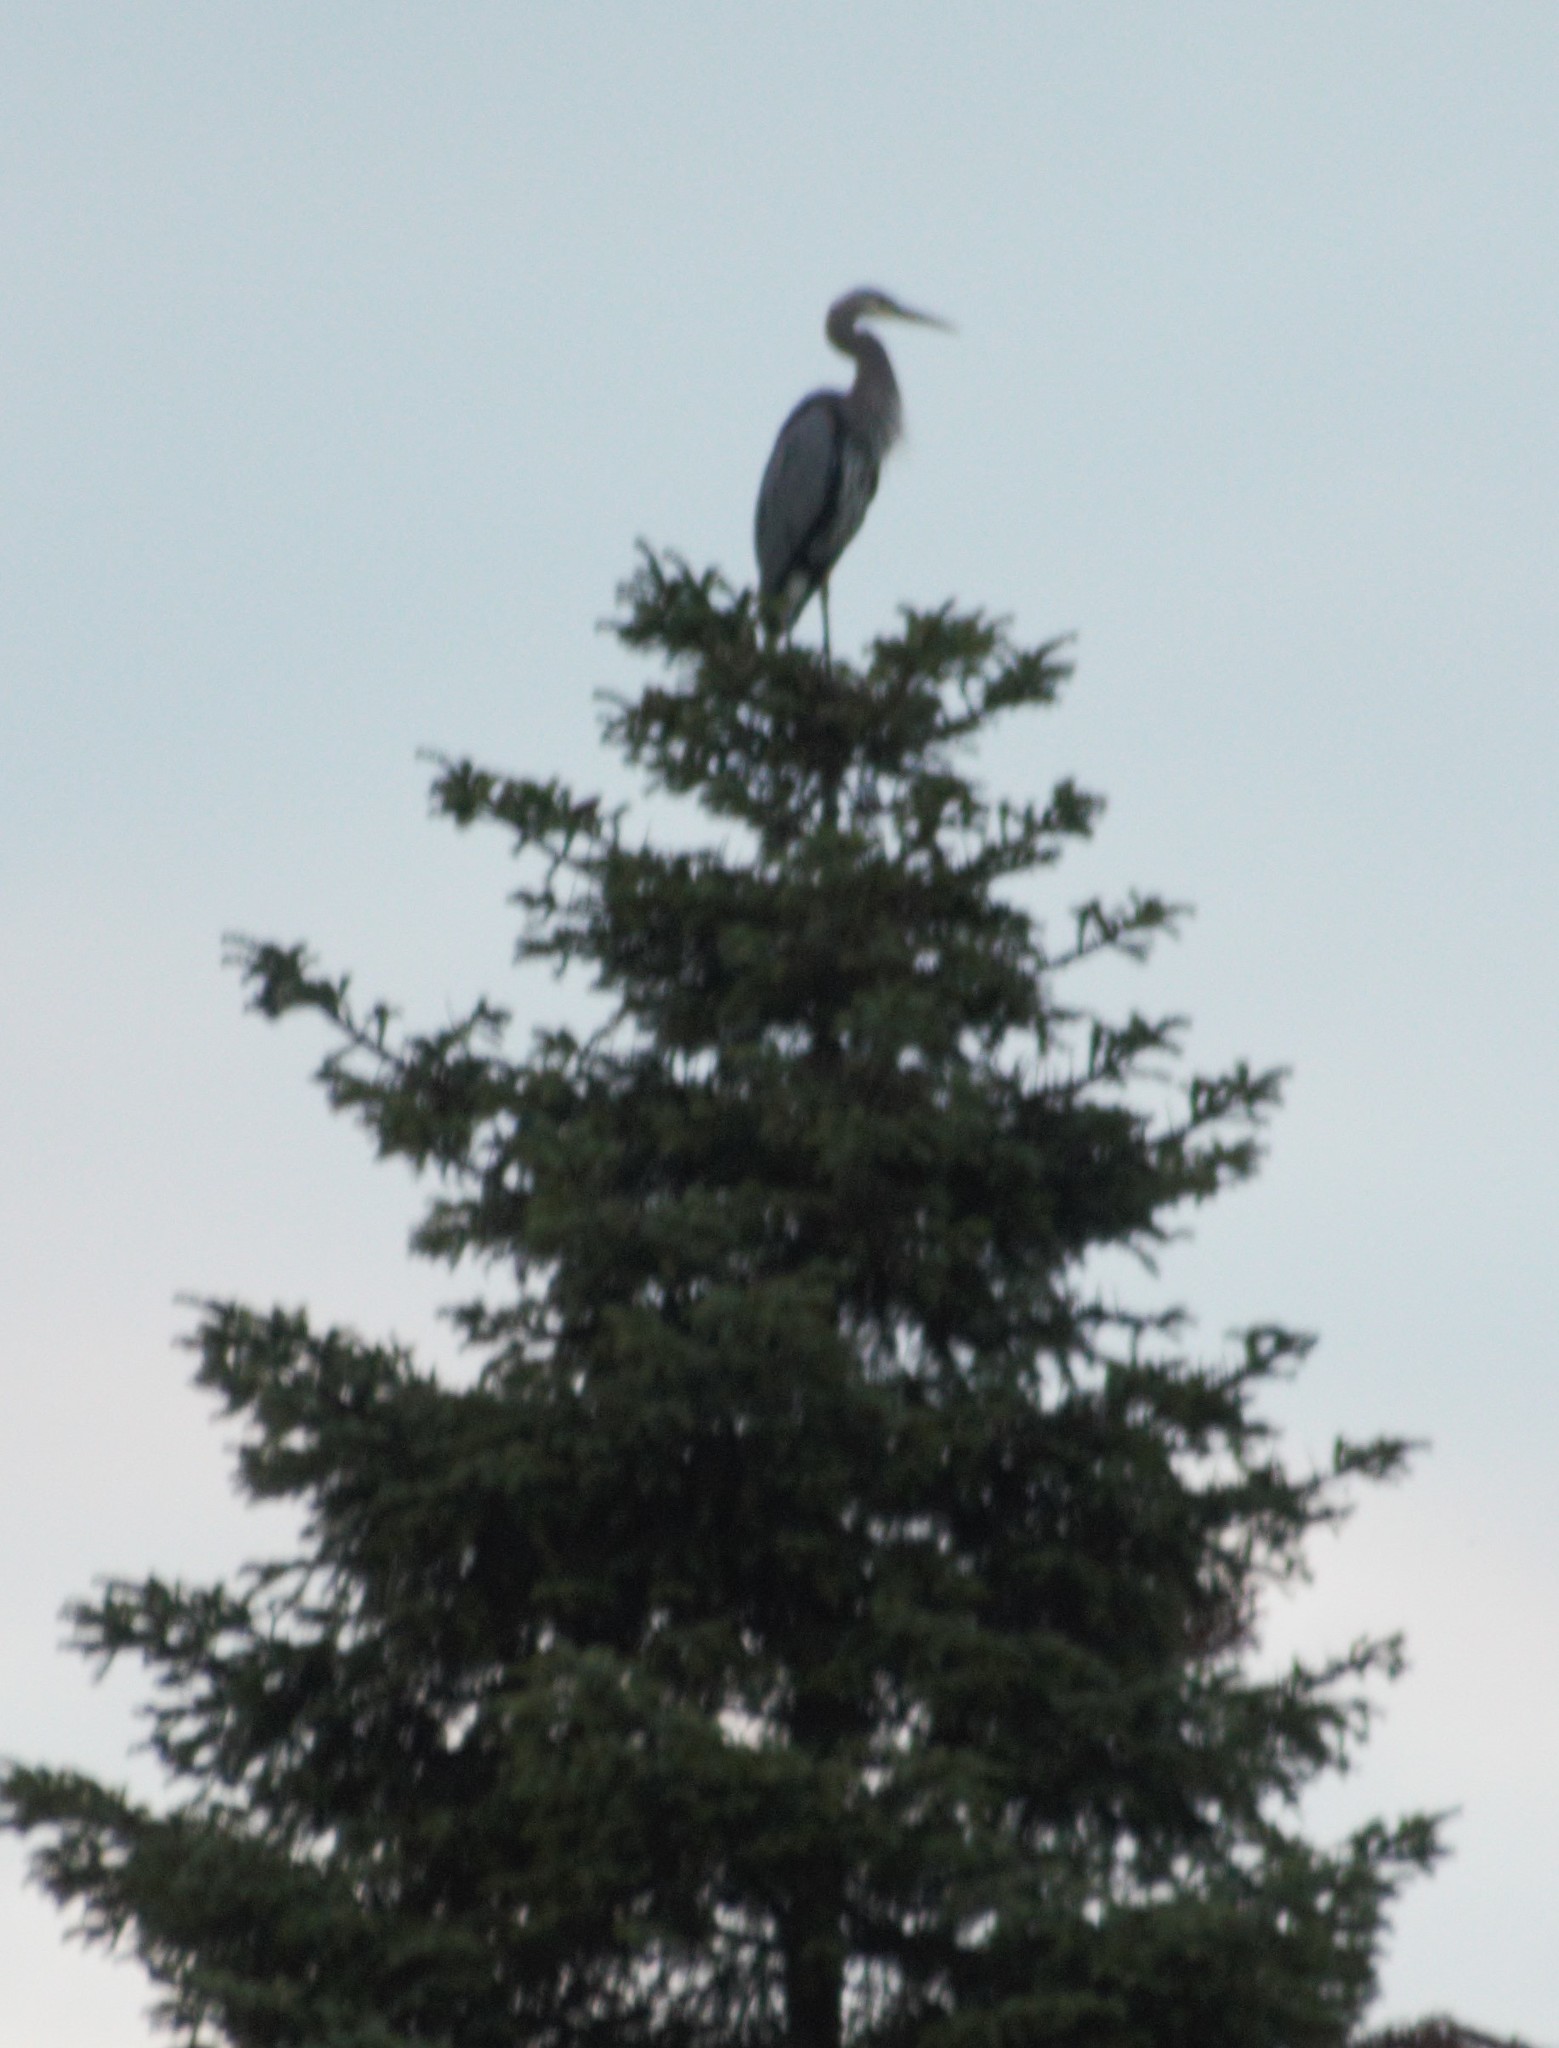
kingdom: Animalia
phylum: Chordata
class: Aves
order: Pelecaniformes
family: Ardeidae
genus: Ardea
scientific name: Ardea herodias
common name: Great blue heron
